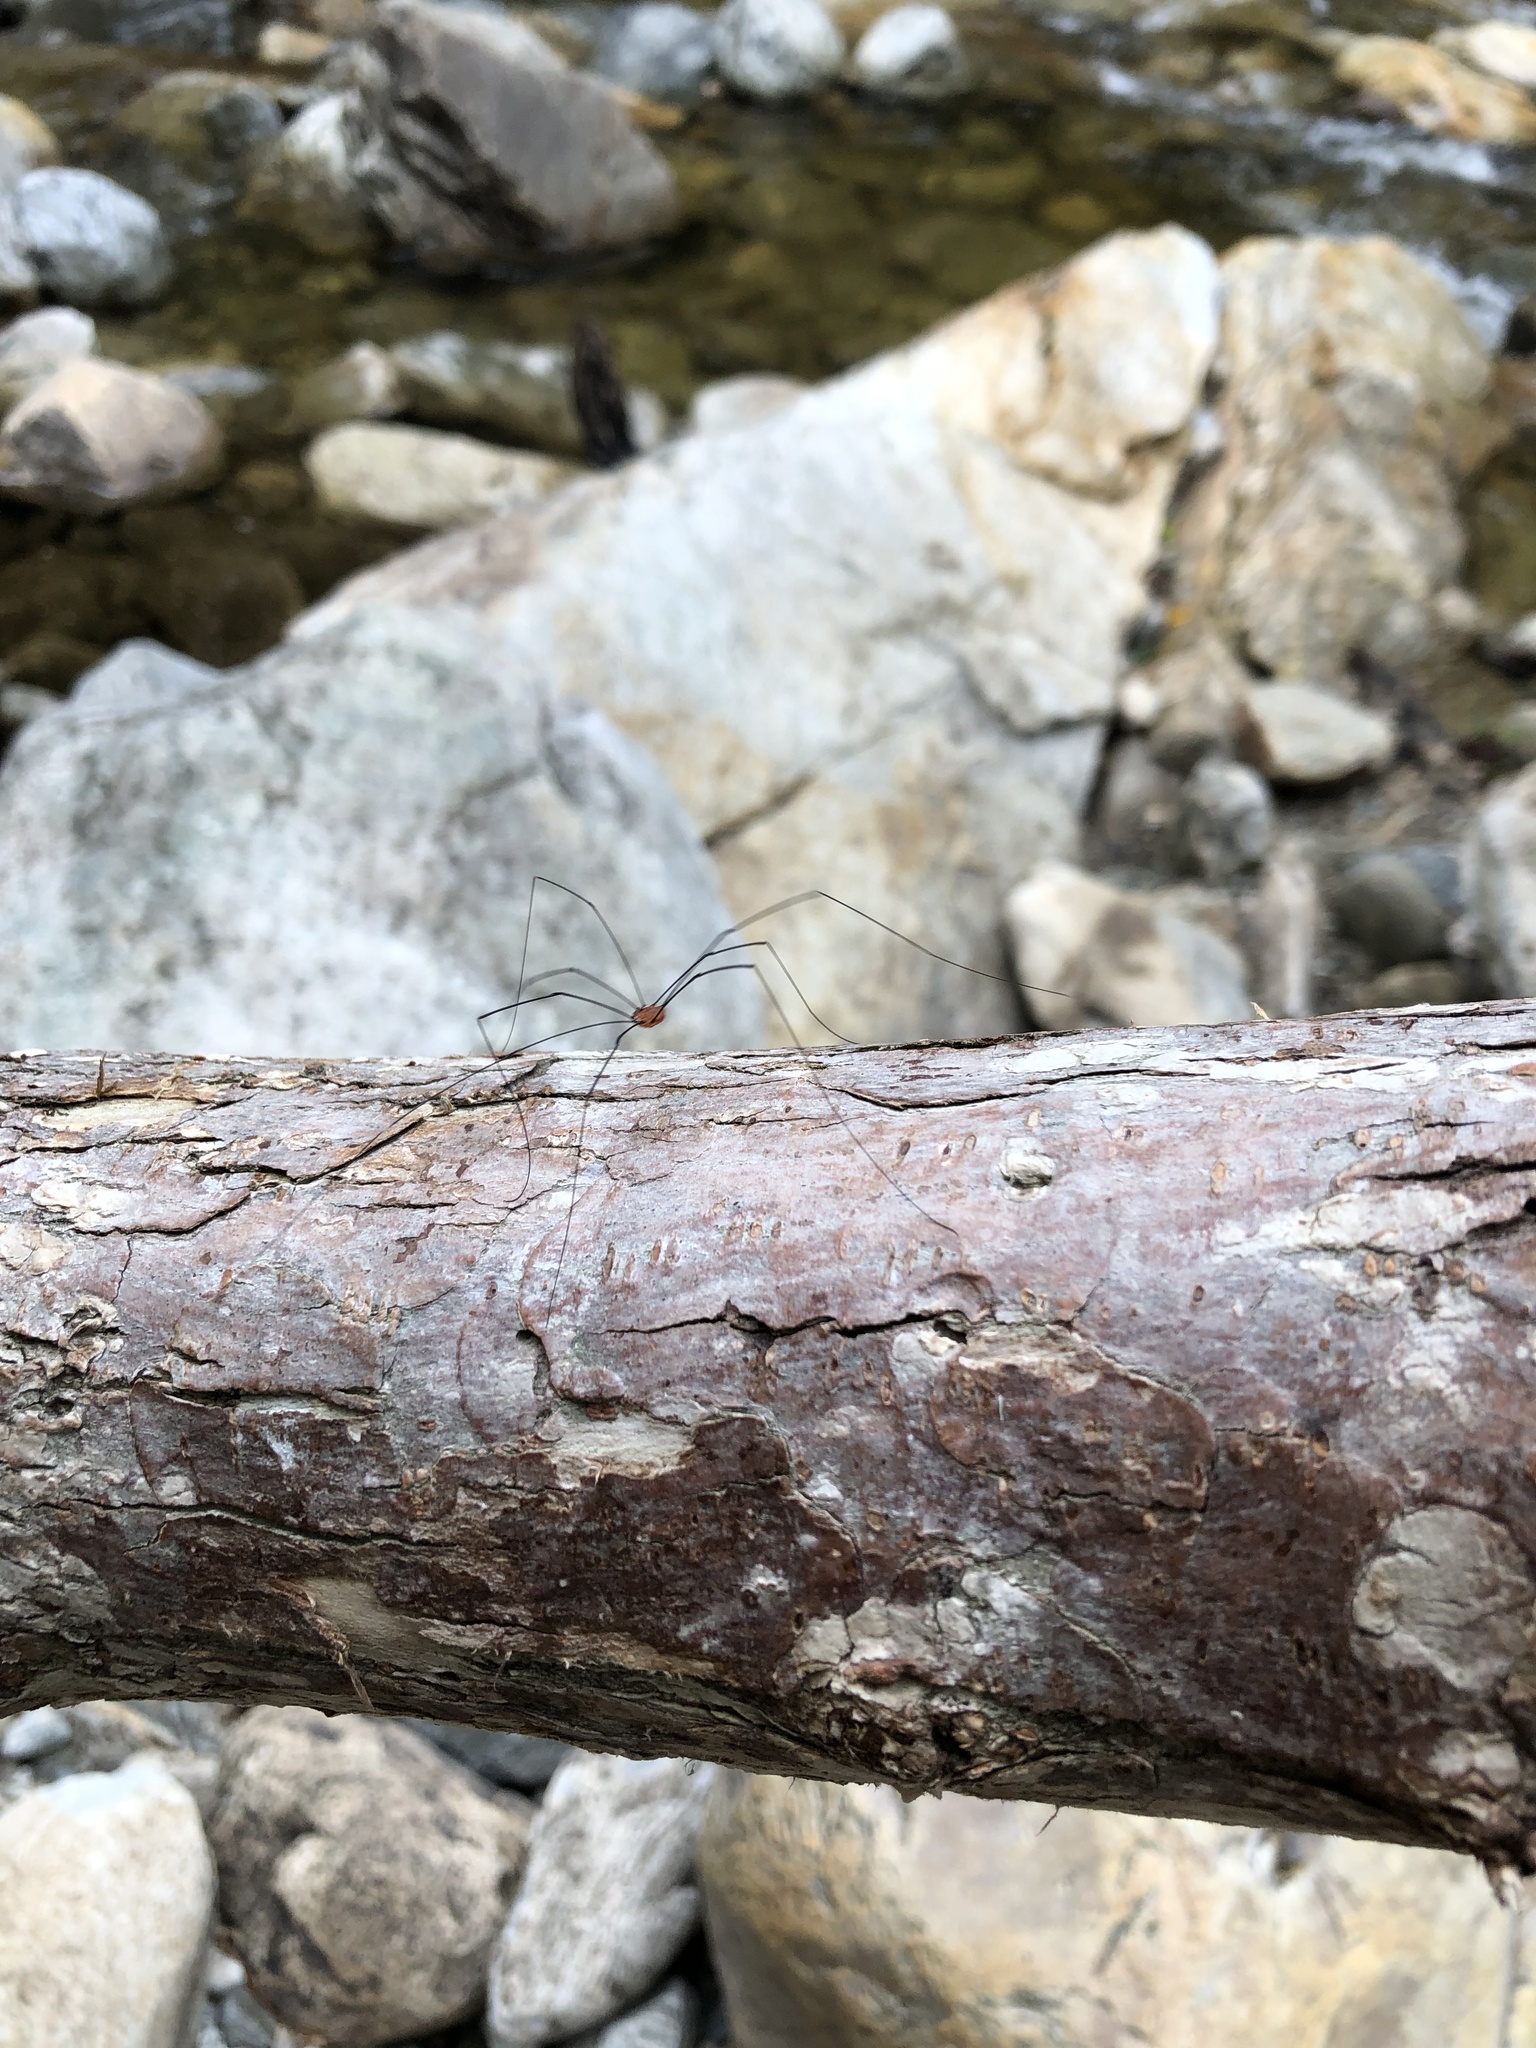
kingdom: Animalia
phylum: Arthropoda
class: Arachnida
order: Opiliones
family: Sclerosomatidae
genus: Leiobunum
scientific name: Leiobunum aldrichi
